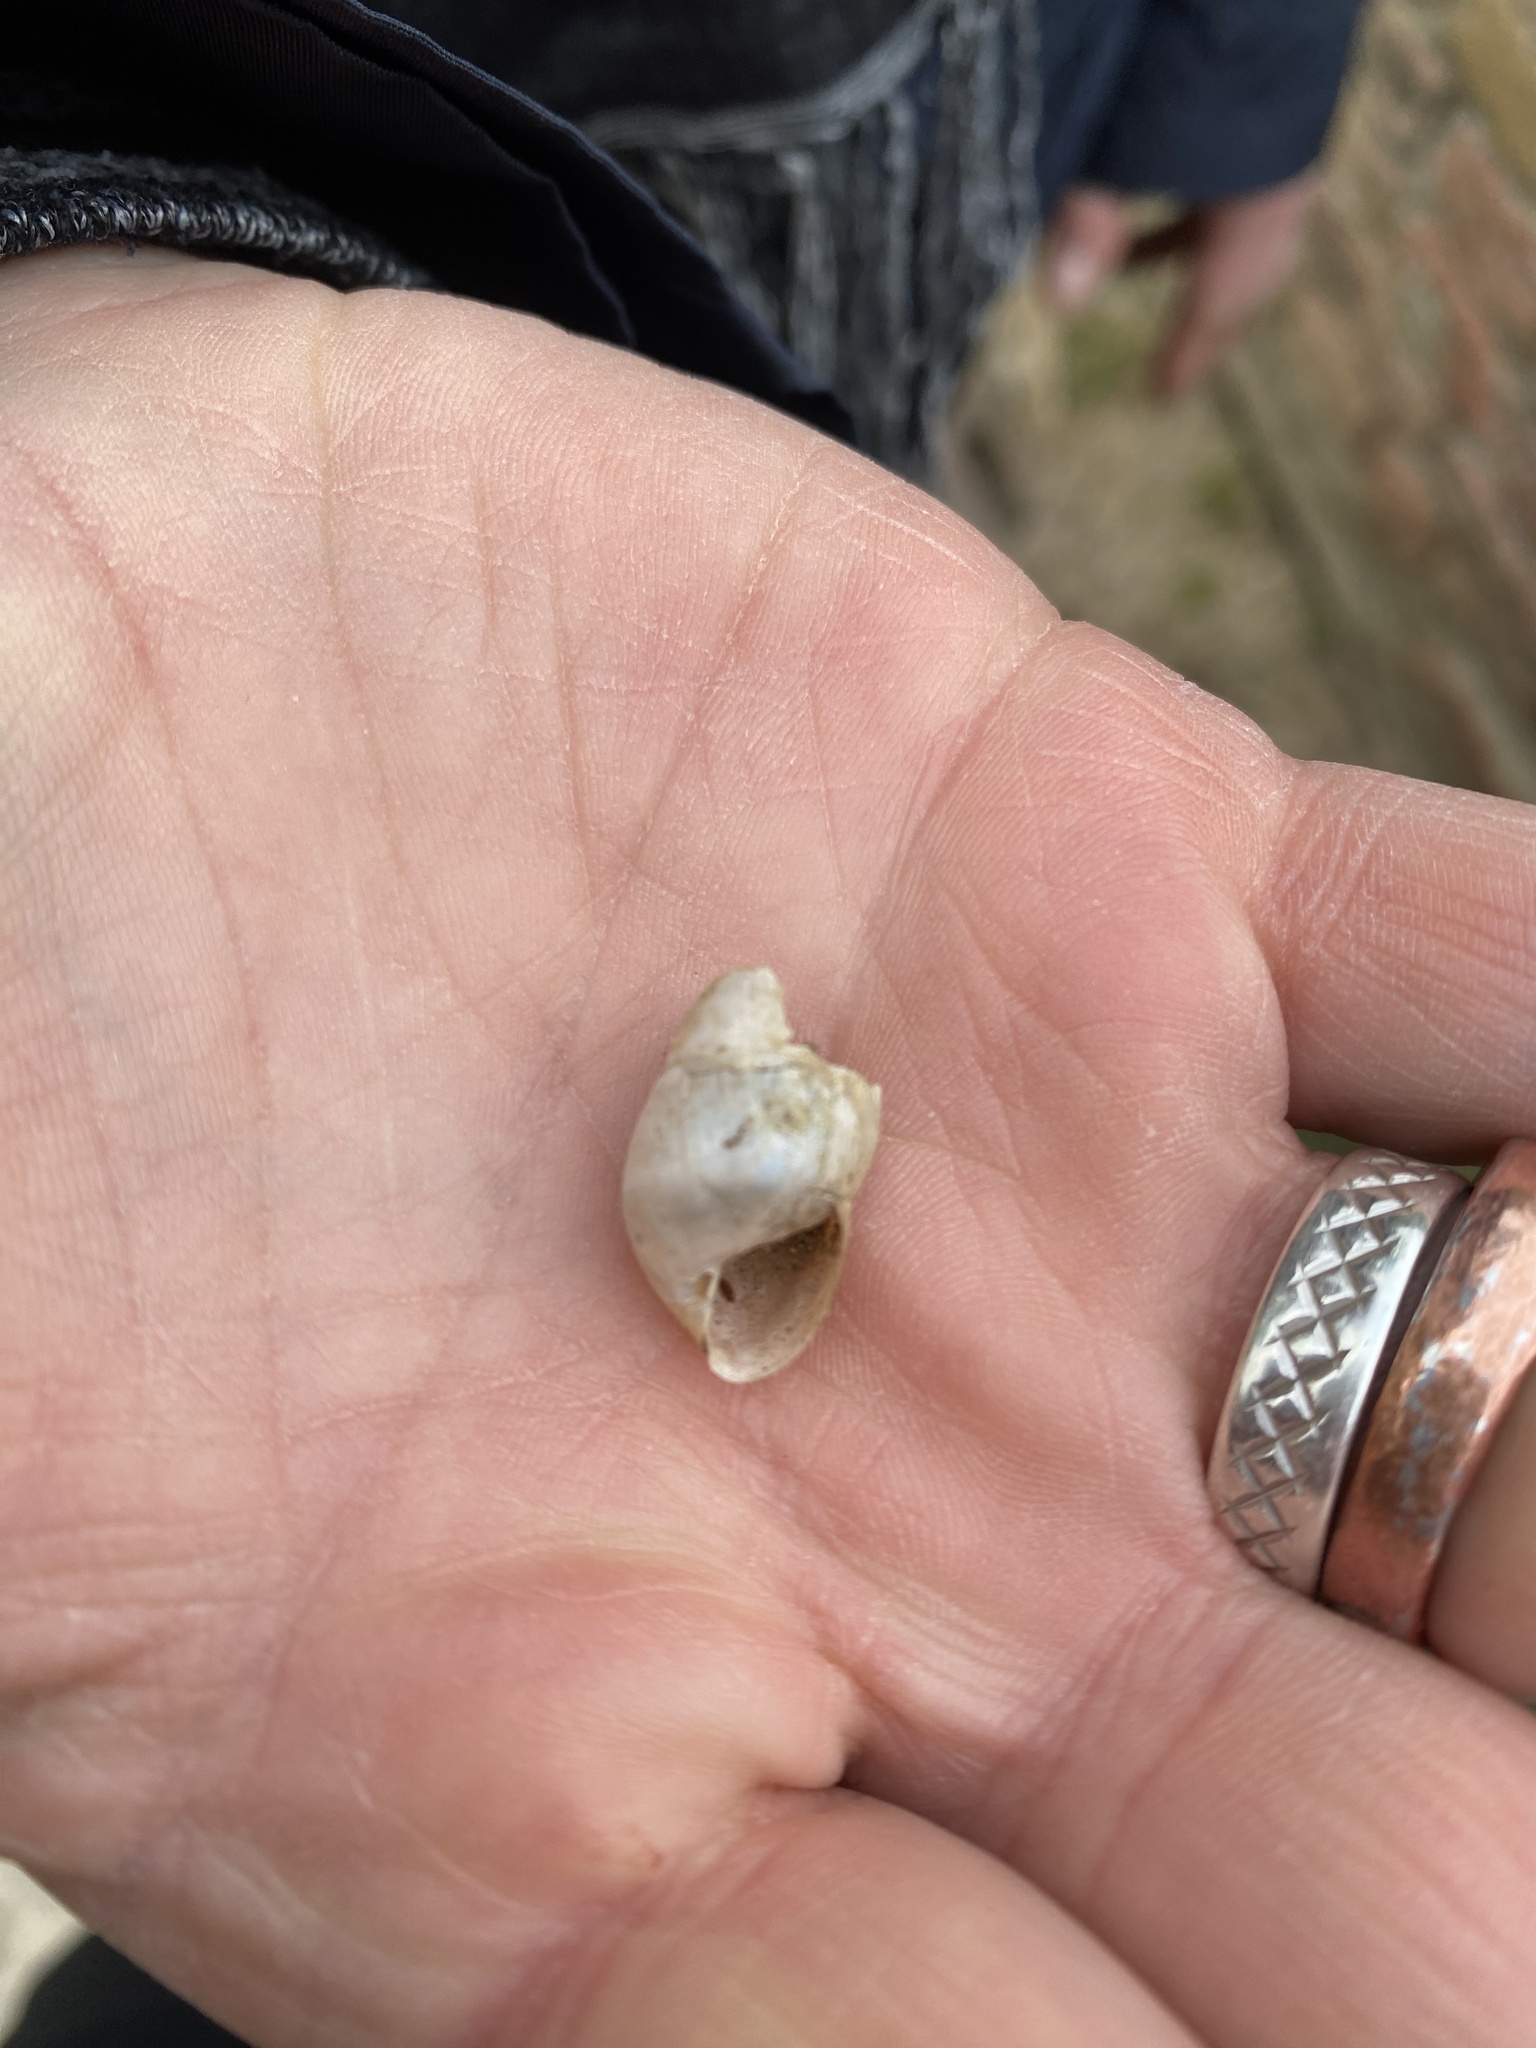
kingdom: Animalia
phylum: Mollusca
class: Gastropoda
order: Stylommatophora
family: Achatinidae
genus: Rumina
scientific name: Rumina decollata
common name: Decollate snail
